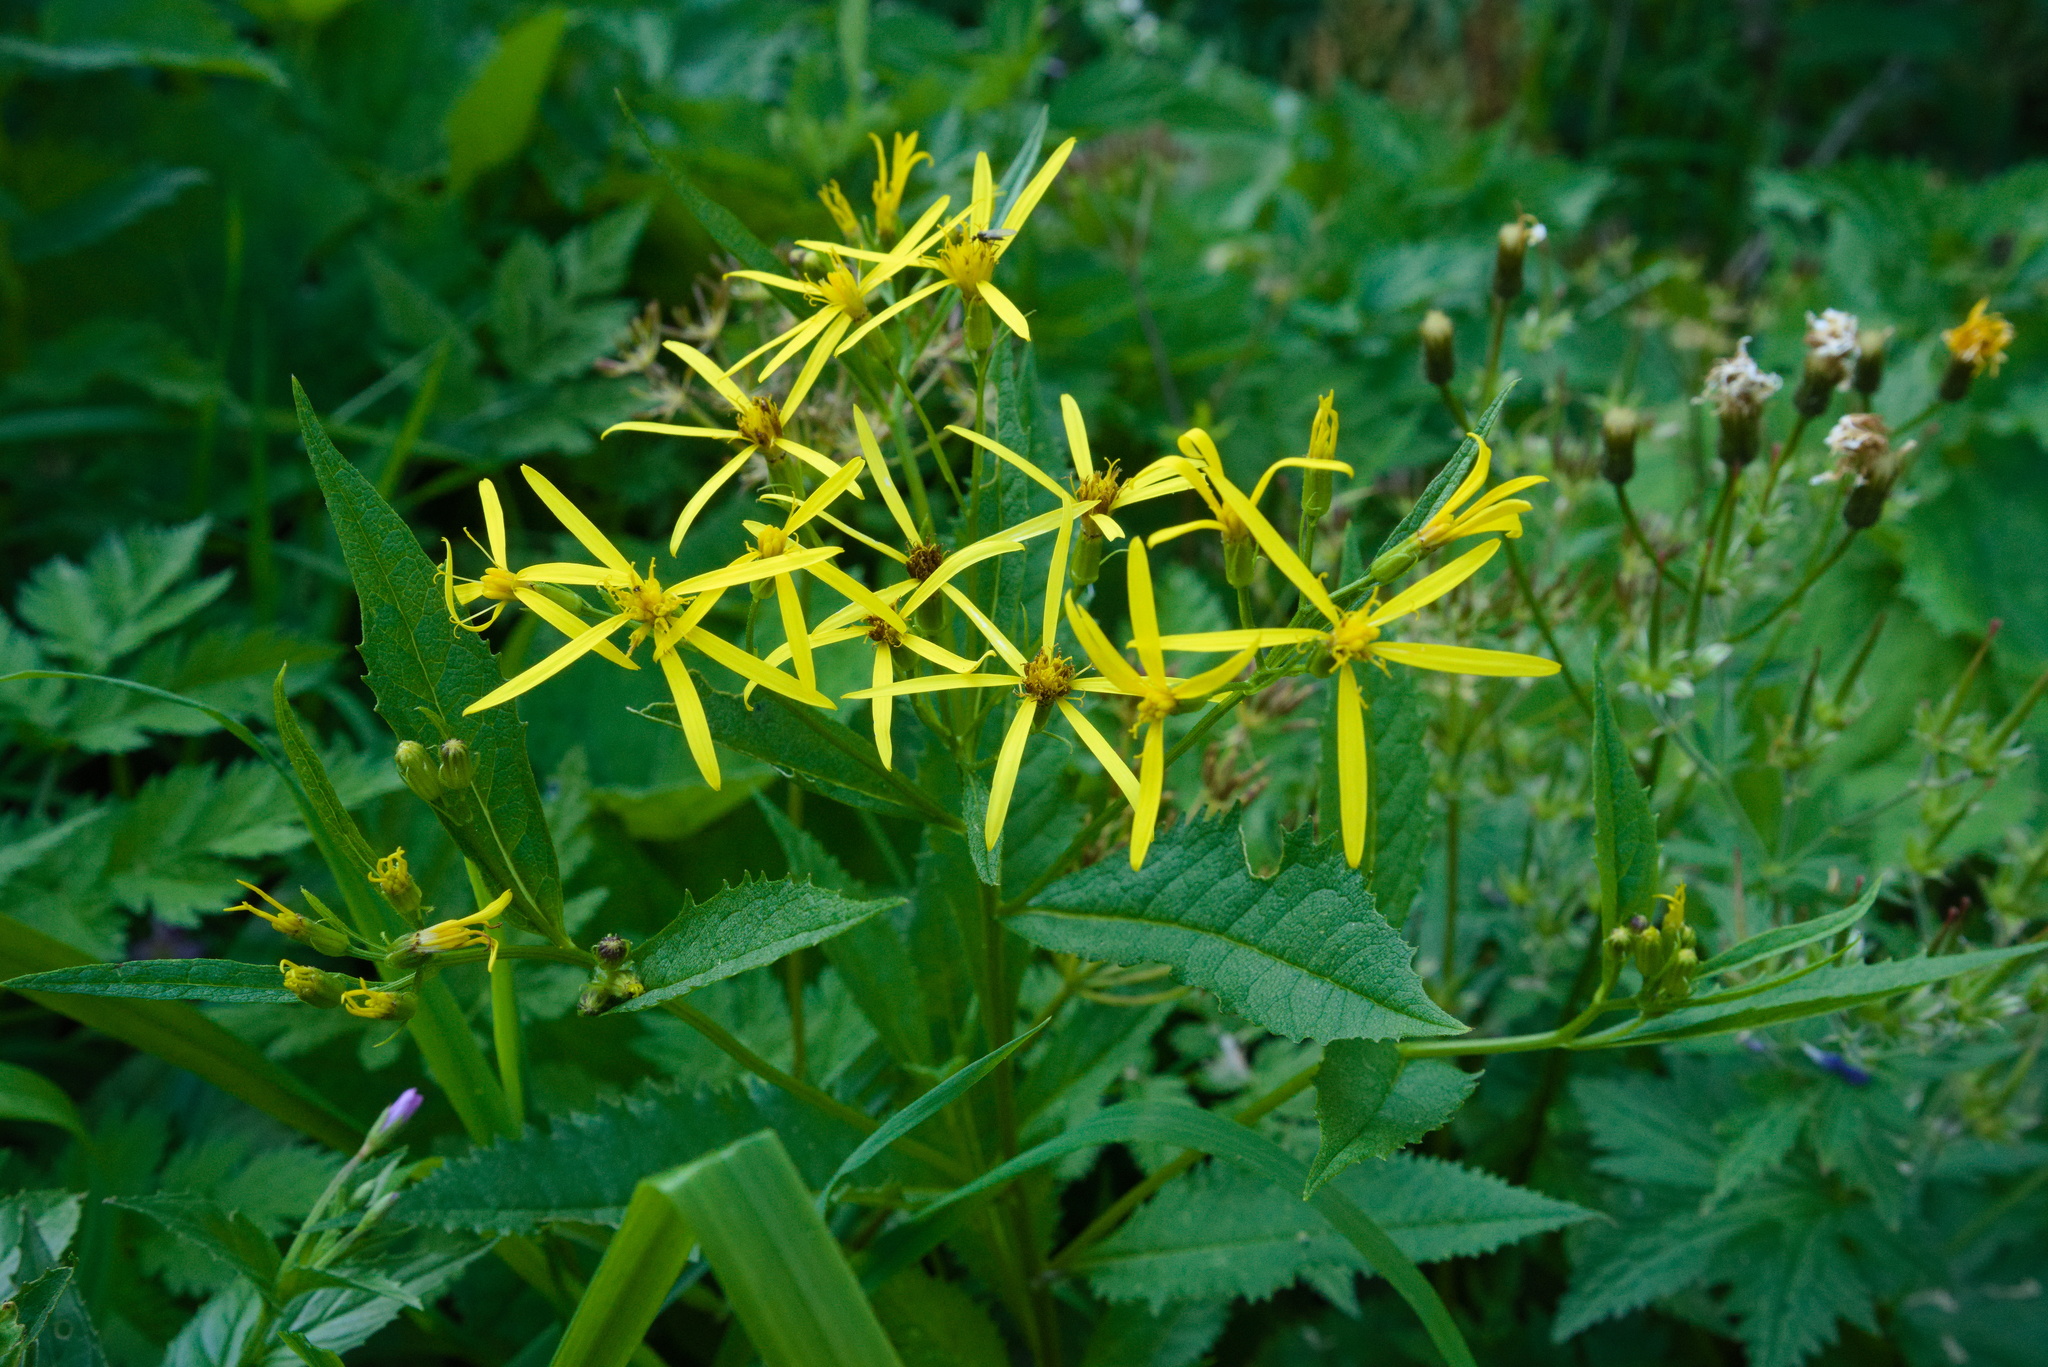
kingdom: Plantae
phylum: Tracheophyta
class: Magnoliopsida
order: Asterales
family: Asteraceae
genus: Senecio
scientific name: Senecio ovatus
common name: Wood ragwort
